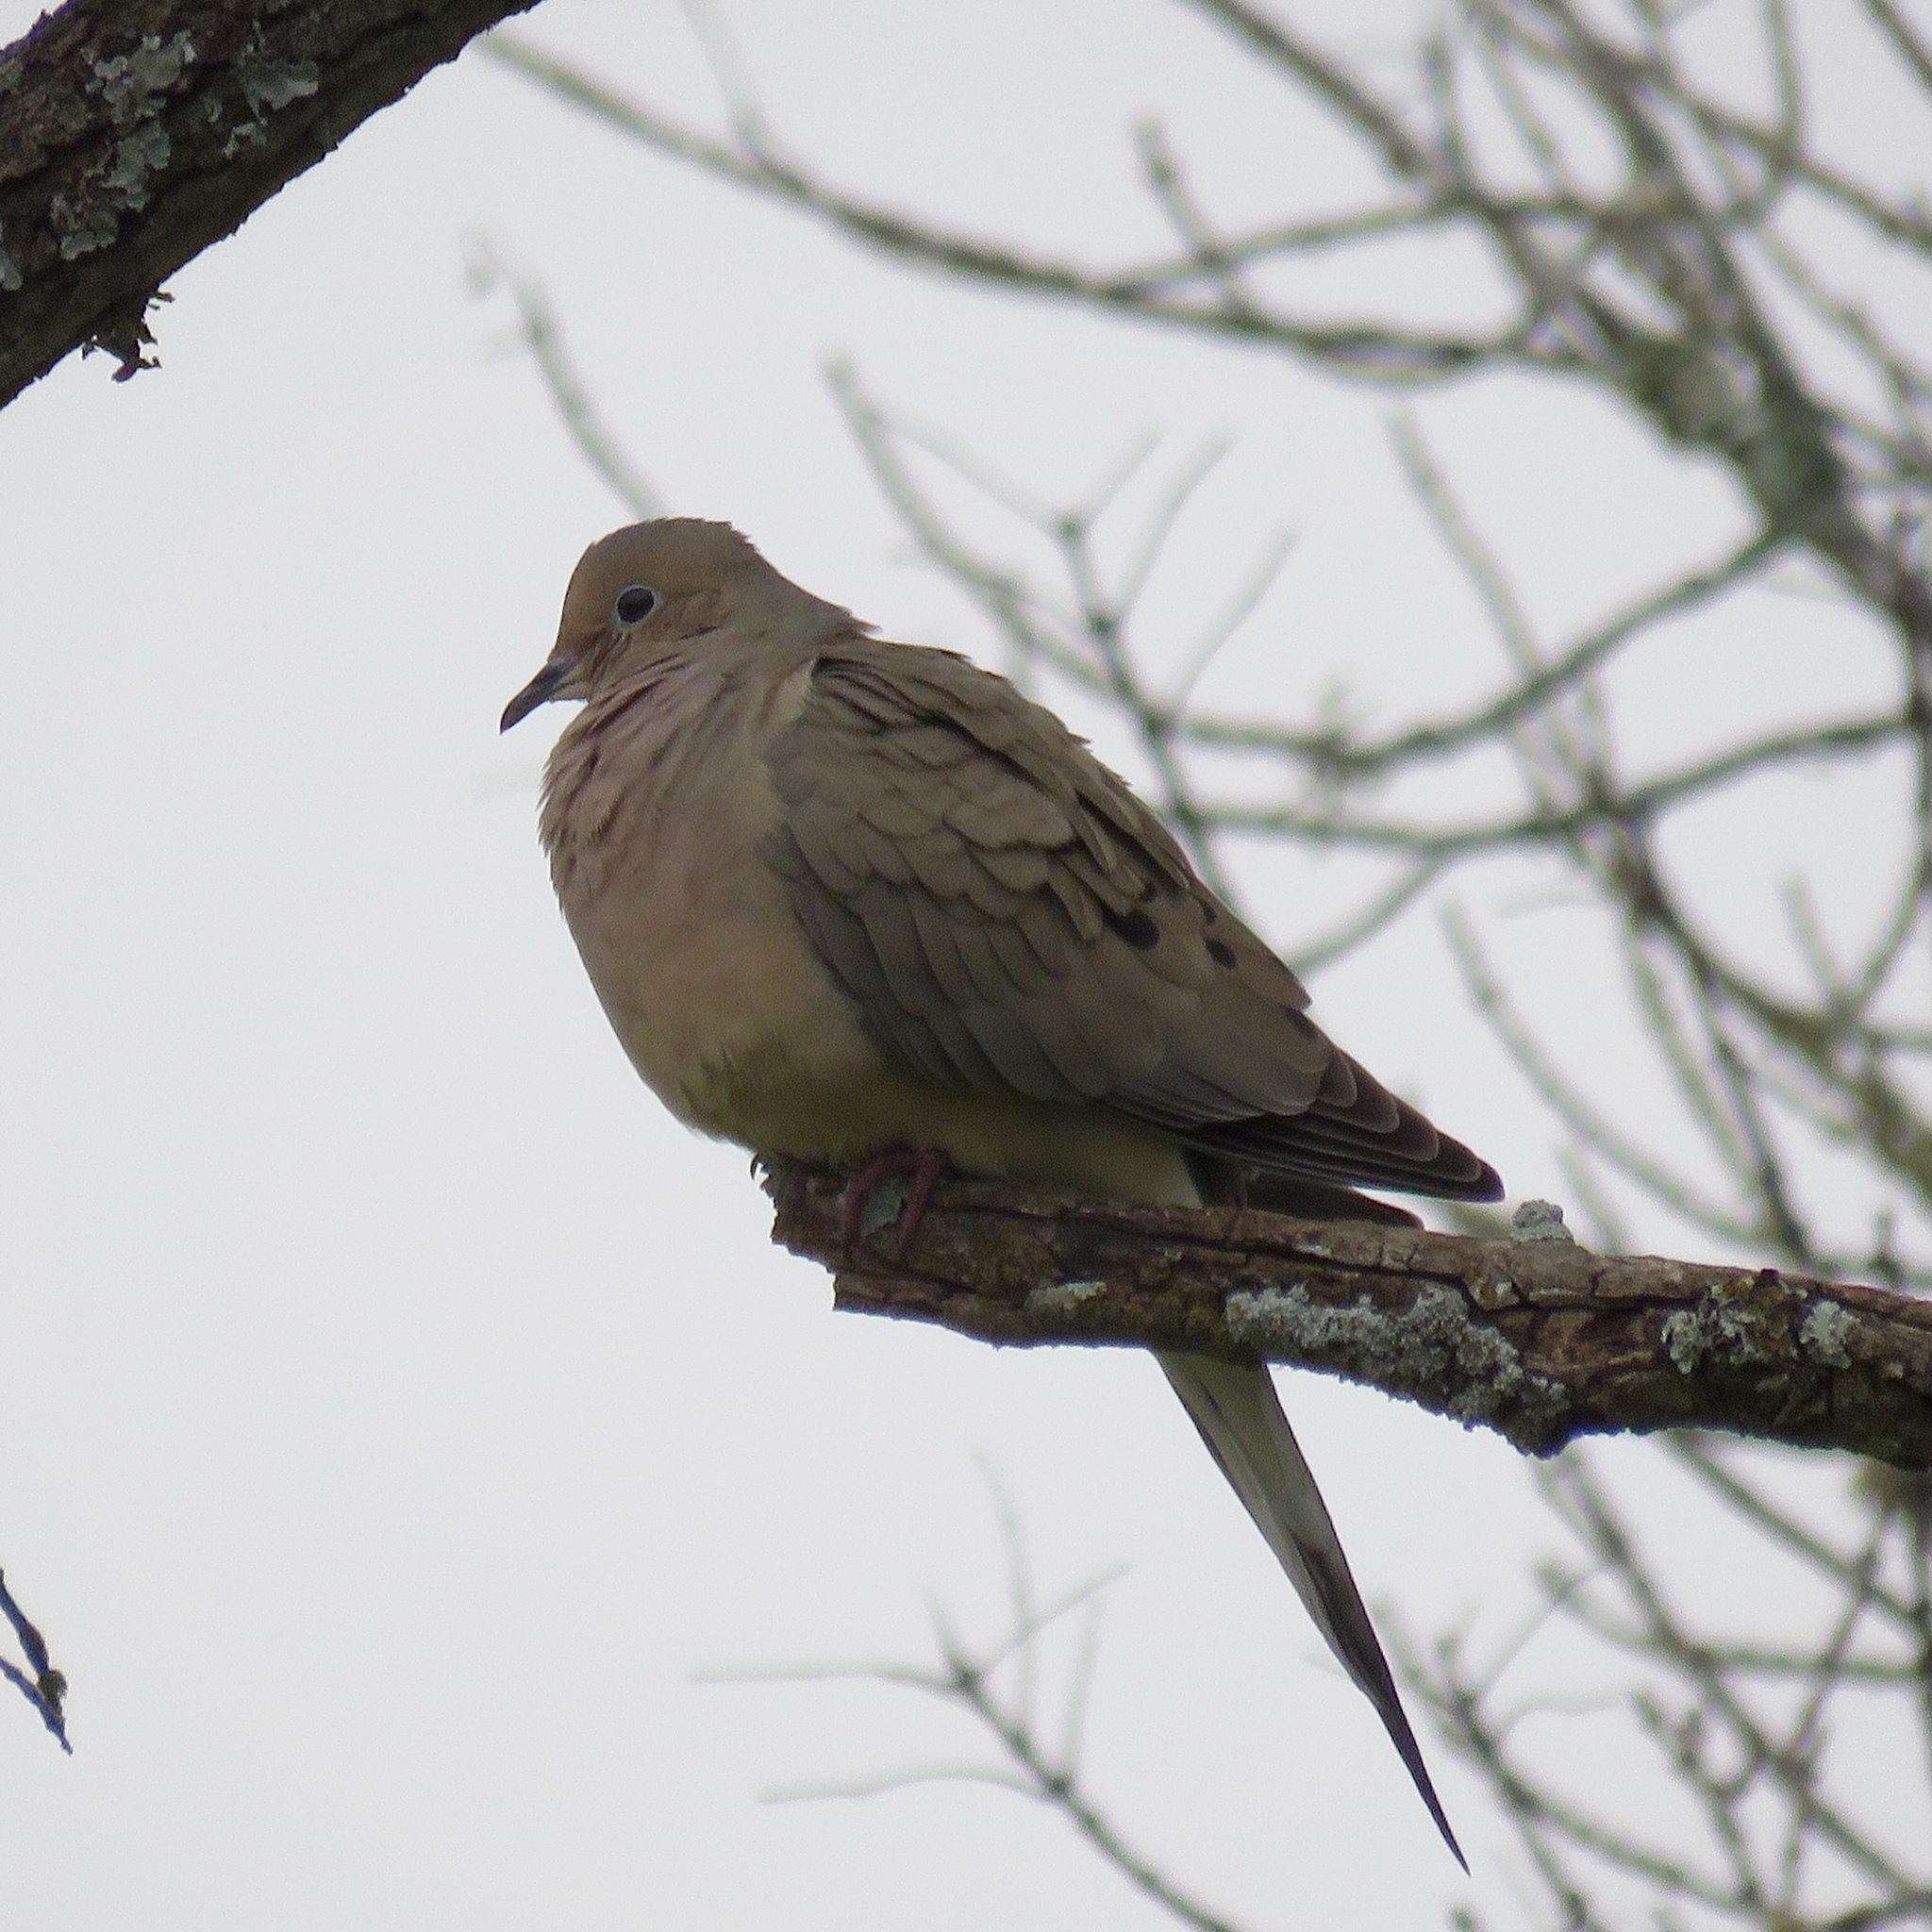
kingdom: Animalia
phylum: Chordata
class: Aves
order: Columbiformes
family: Columbidae
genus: Zenaida
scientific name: Zenaida macroura
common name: Mourning dove
